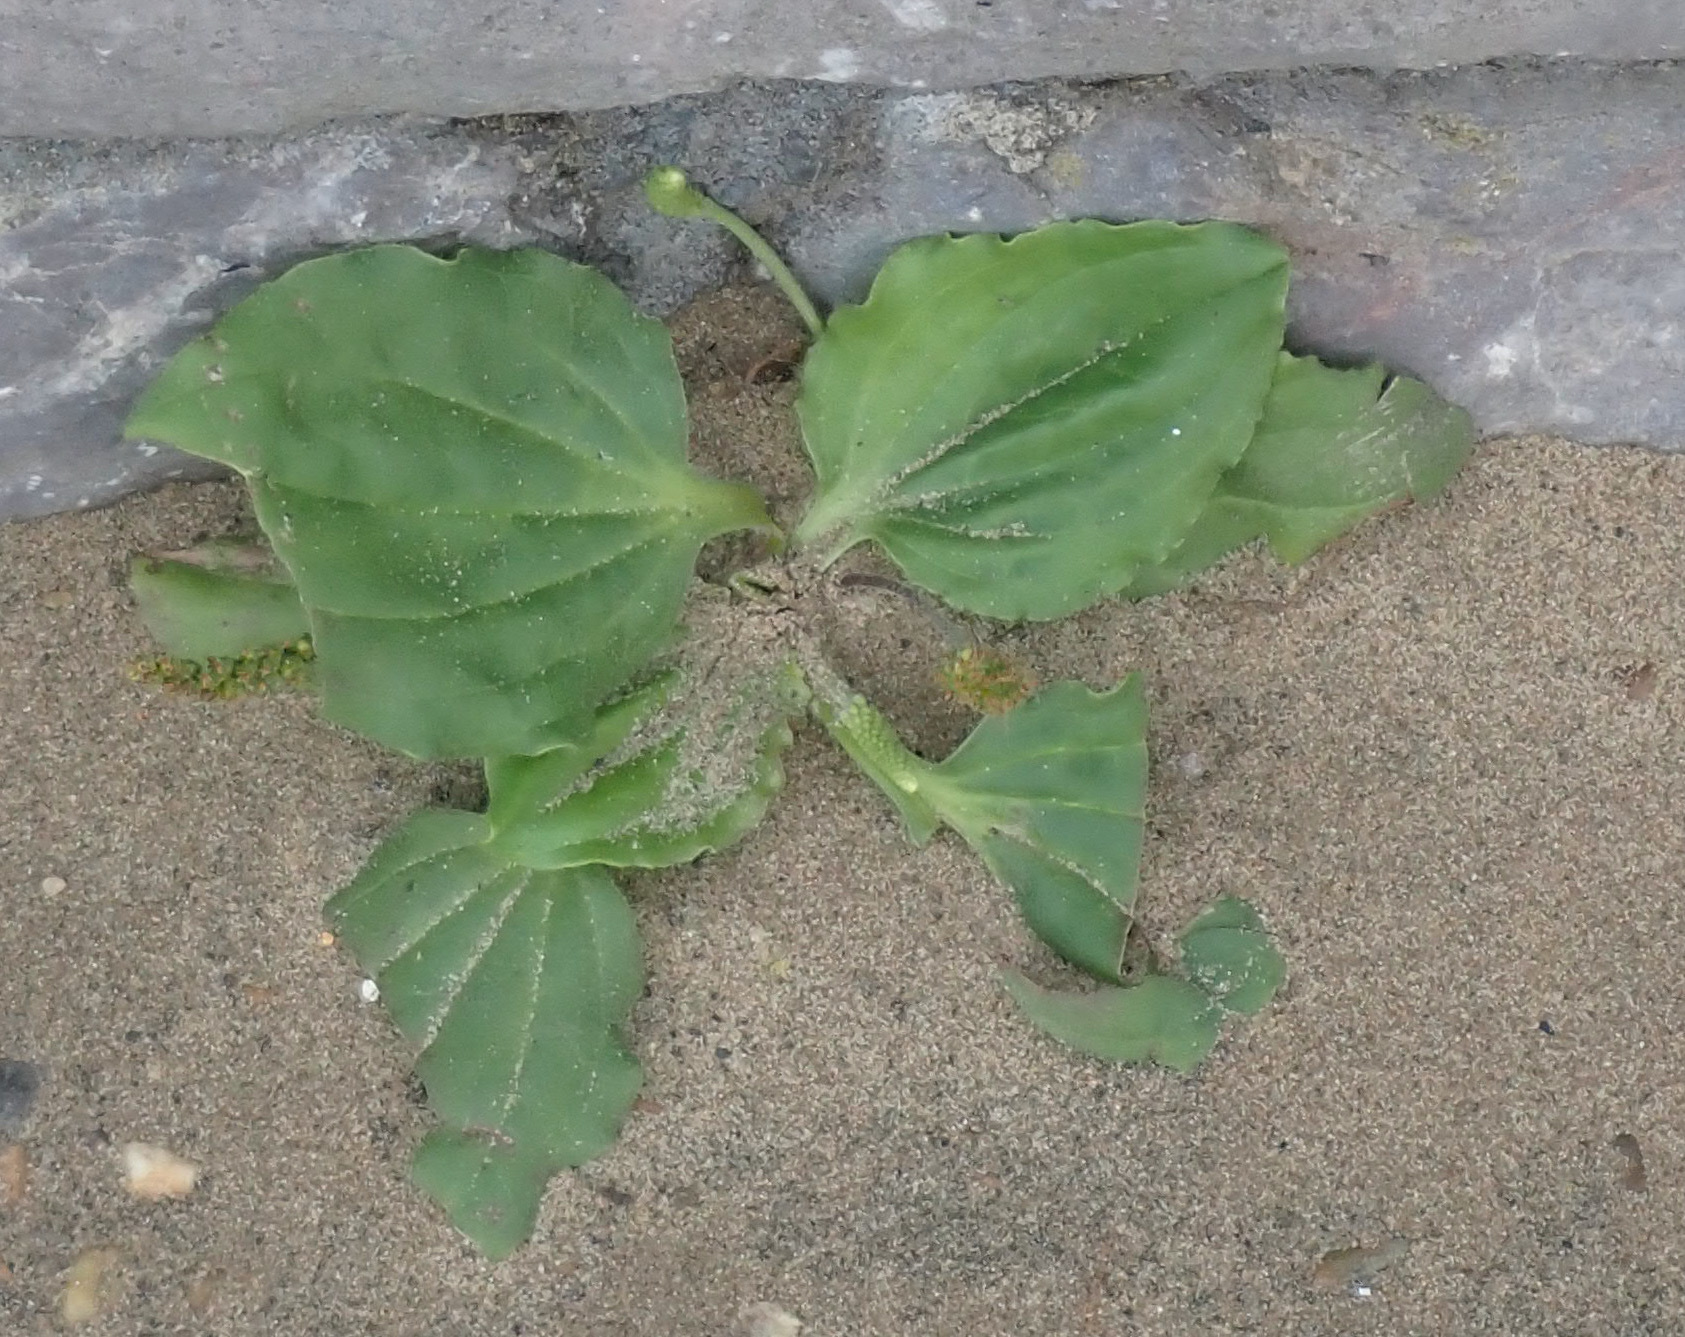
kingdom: Plantae
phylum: Tracheophyta
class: Magnoliopsida
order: Lamiales
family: Plantaginaceae
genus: Plantago
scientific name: Plantago major
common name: Common plantain
